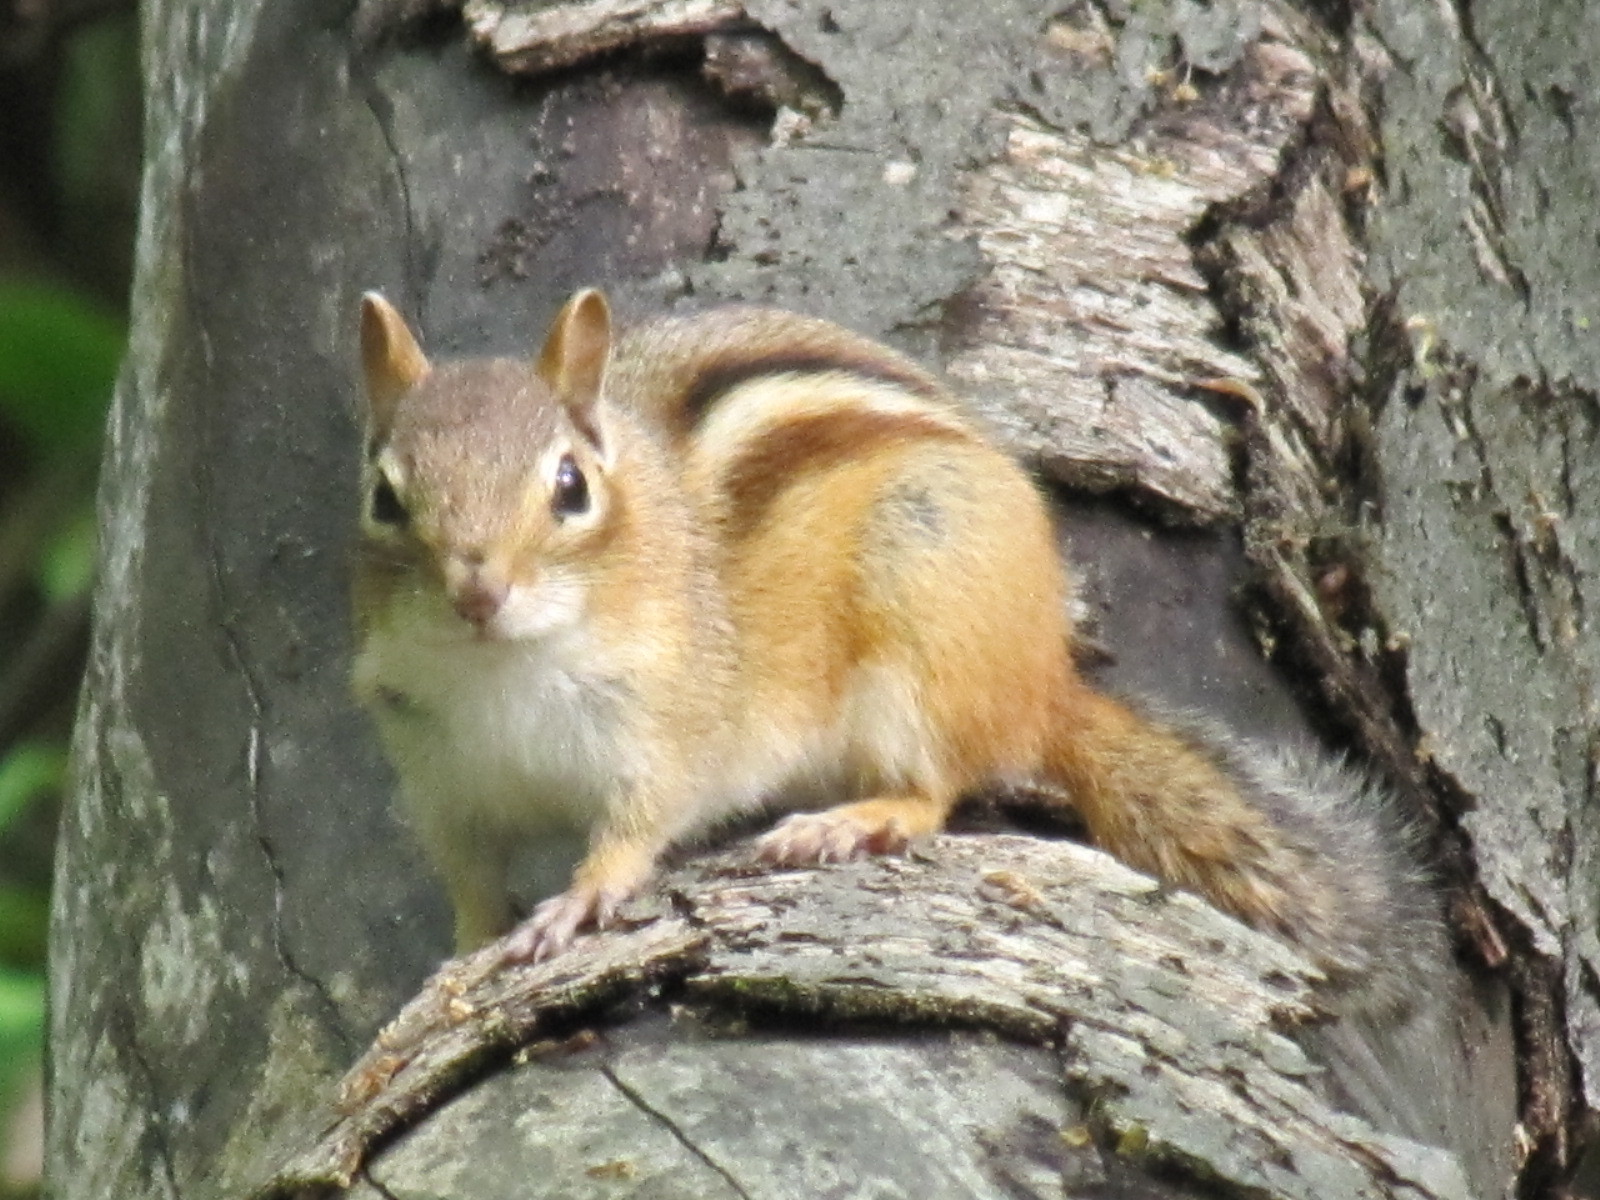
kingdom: Animalia
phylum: Chordata
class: Mammalia
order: Rodentia
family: Sciuridae
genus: Tamias
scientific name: Tamias striatus
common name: Eastern chipmunk
